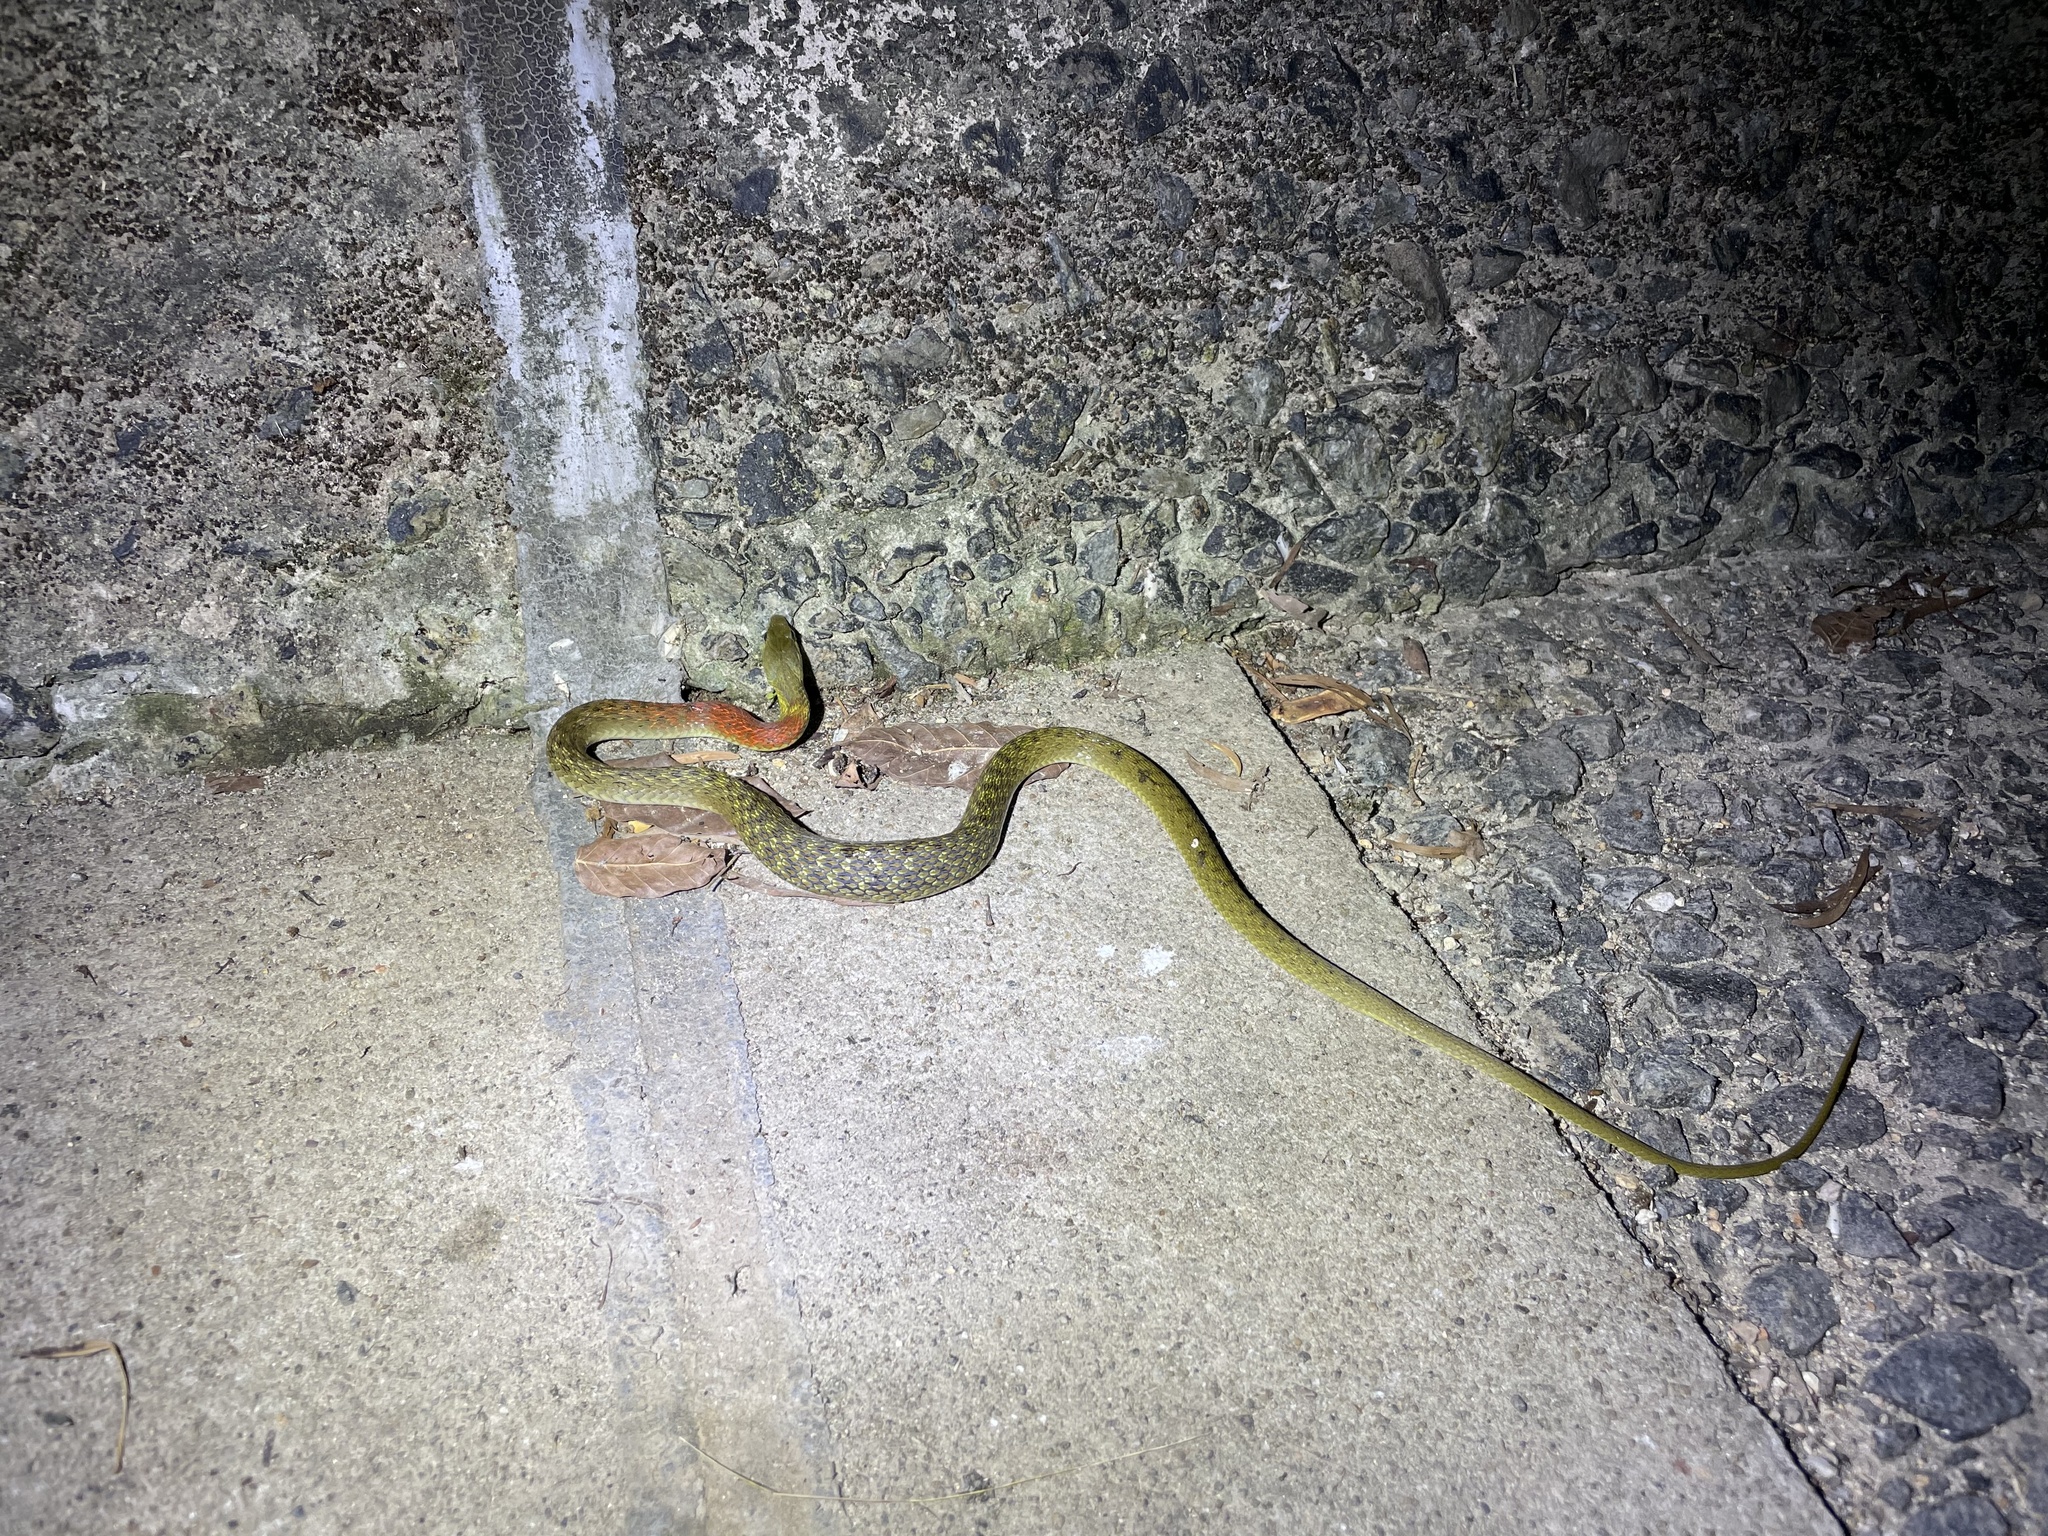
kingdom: Animalia
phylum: Chordata
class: Squamata
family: Colubridae
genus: Rhabdophis
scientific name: Rhabdophis helleri
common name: Heller’s red-necked keelback
